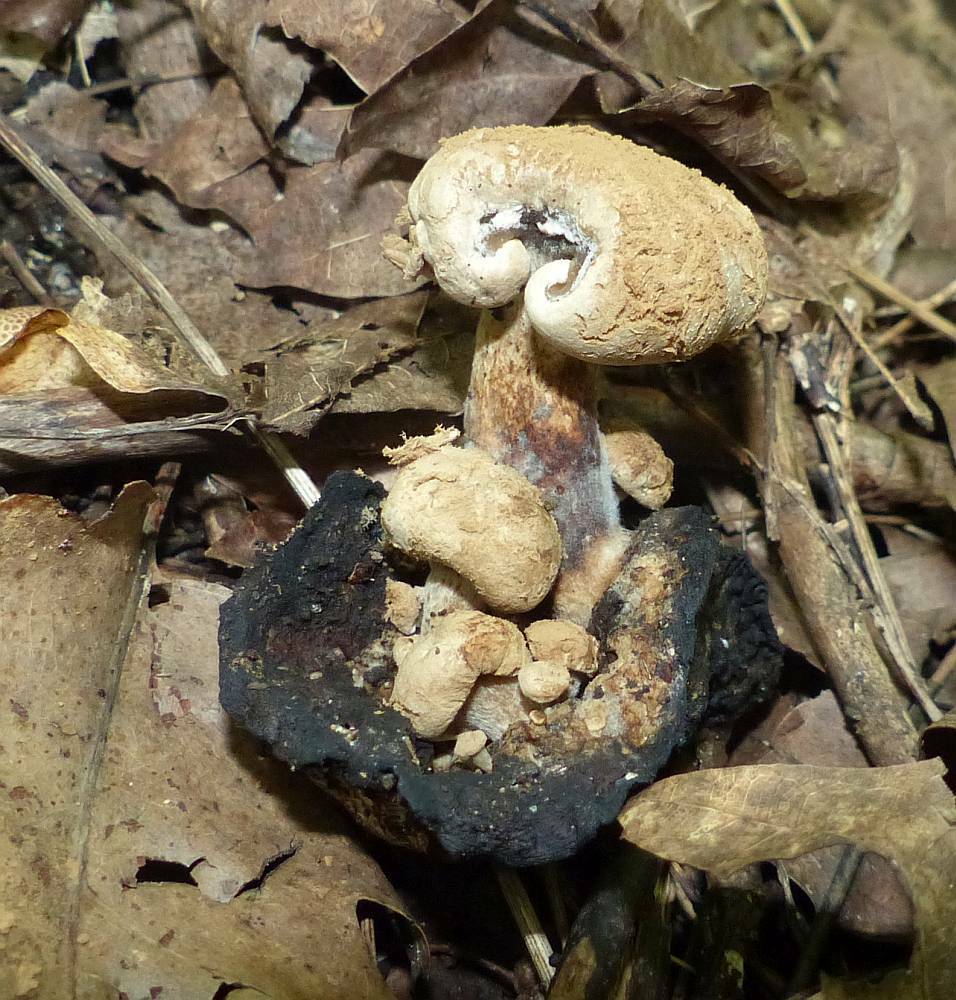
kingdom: Fungi
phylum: Basidiomycota
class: Agaricomycetes
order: Agaricales
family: Lyophyllaceae
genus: Asterophora
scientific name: Asterophora lycoperdoides
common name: Pick-a-back toadstool
